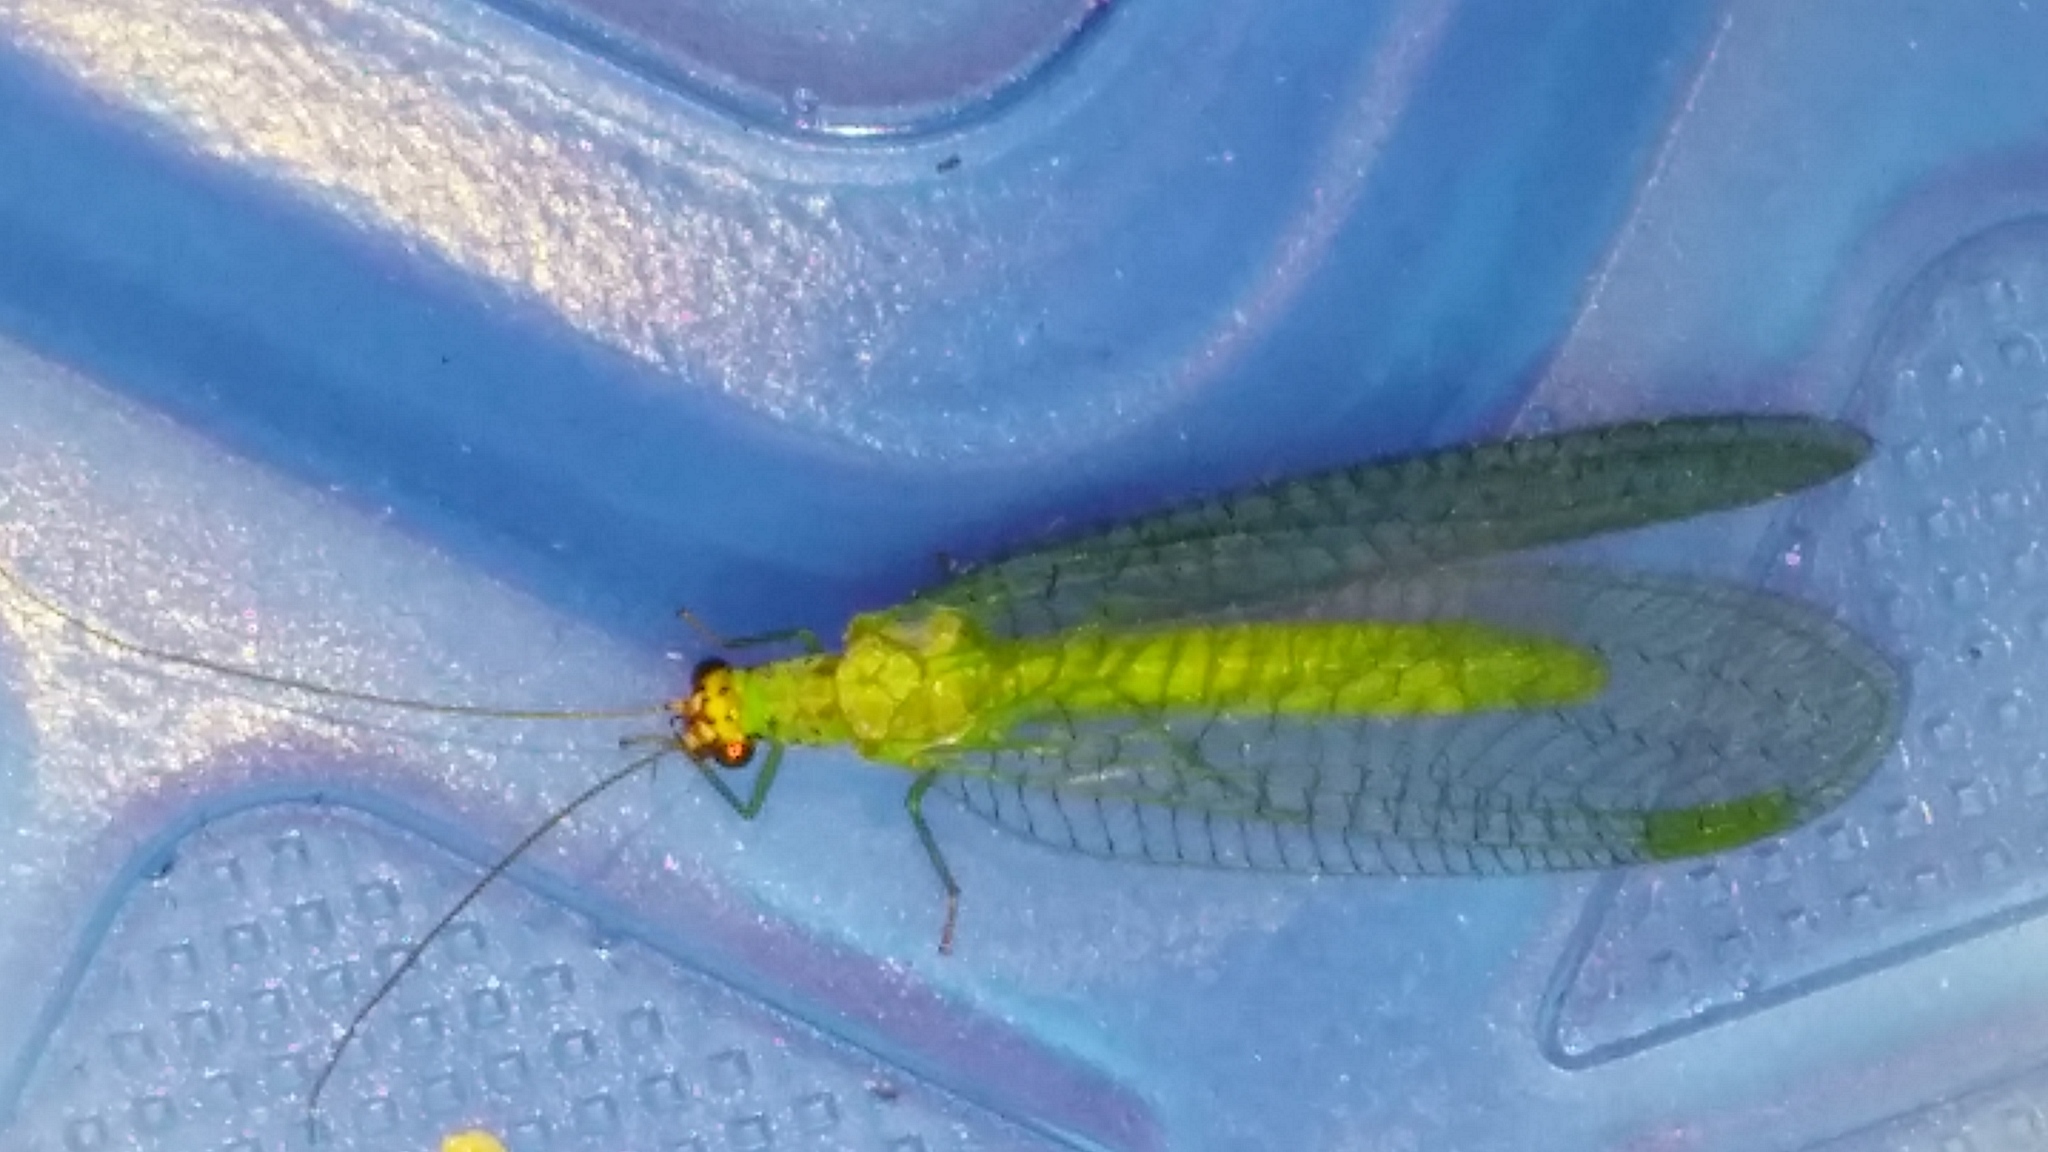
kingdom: Animalia
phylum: Arthropoda
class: Insecta
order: Neuroptera
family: Chrysopidae
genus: Chrysopa
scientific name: Chrysopa oculata
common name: Golden-eyed lacewing
